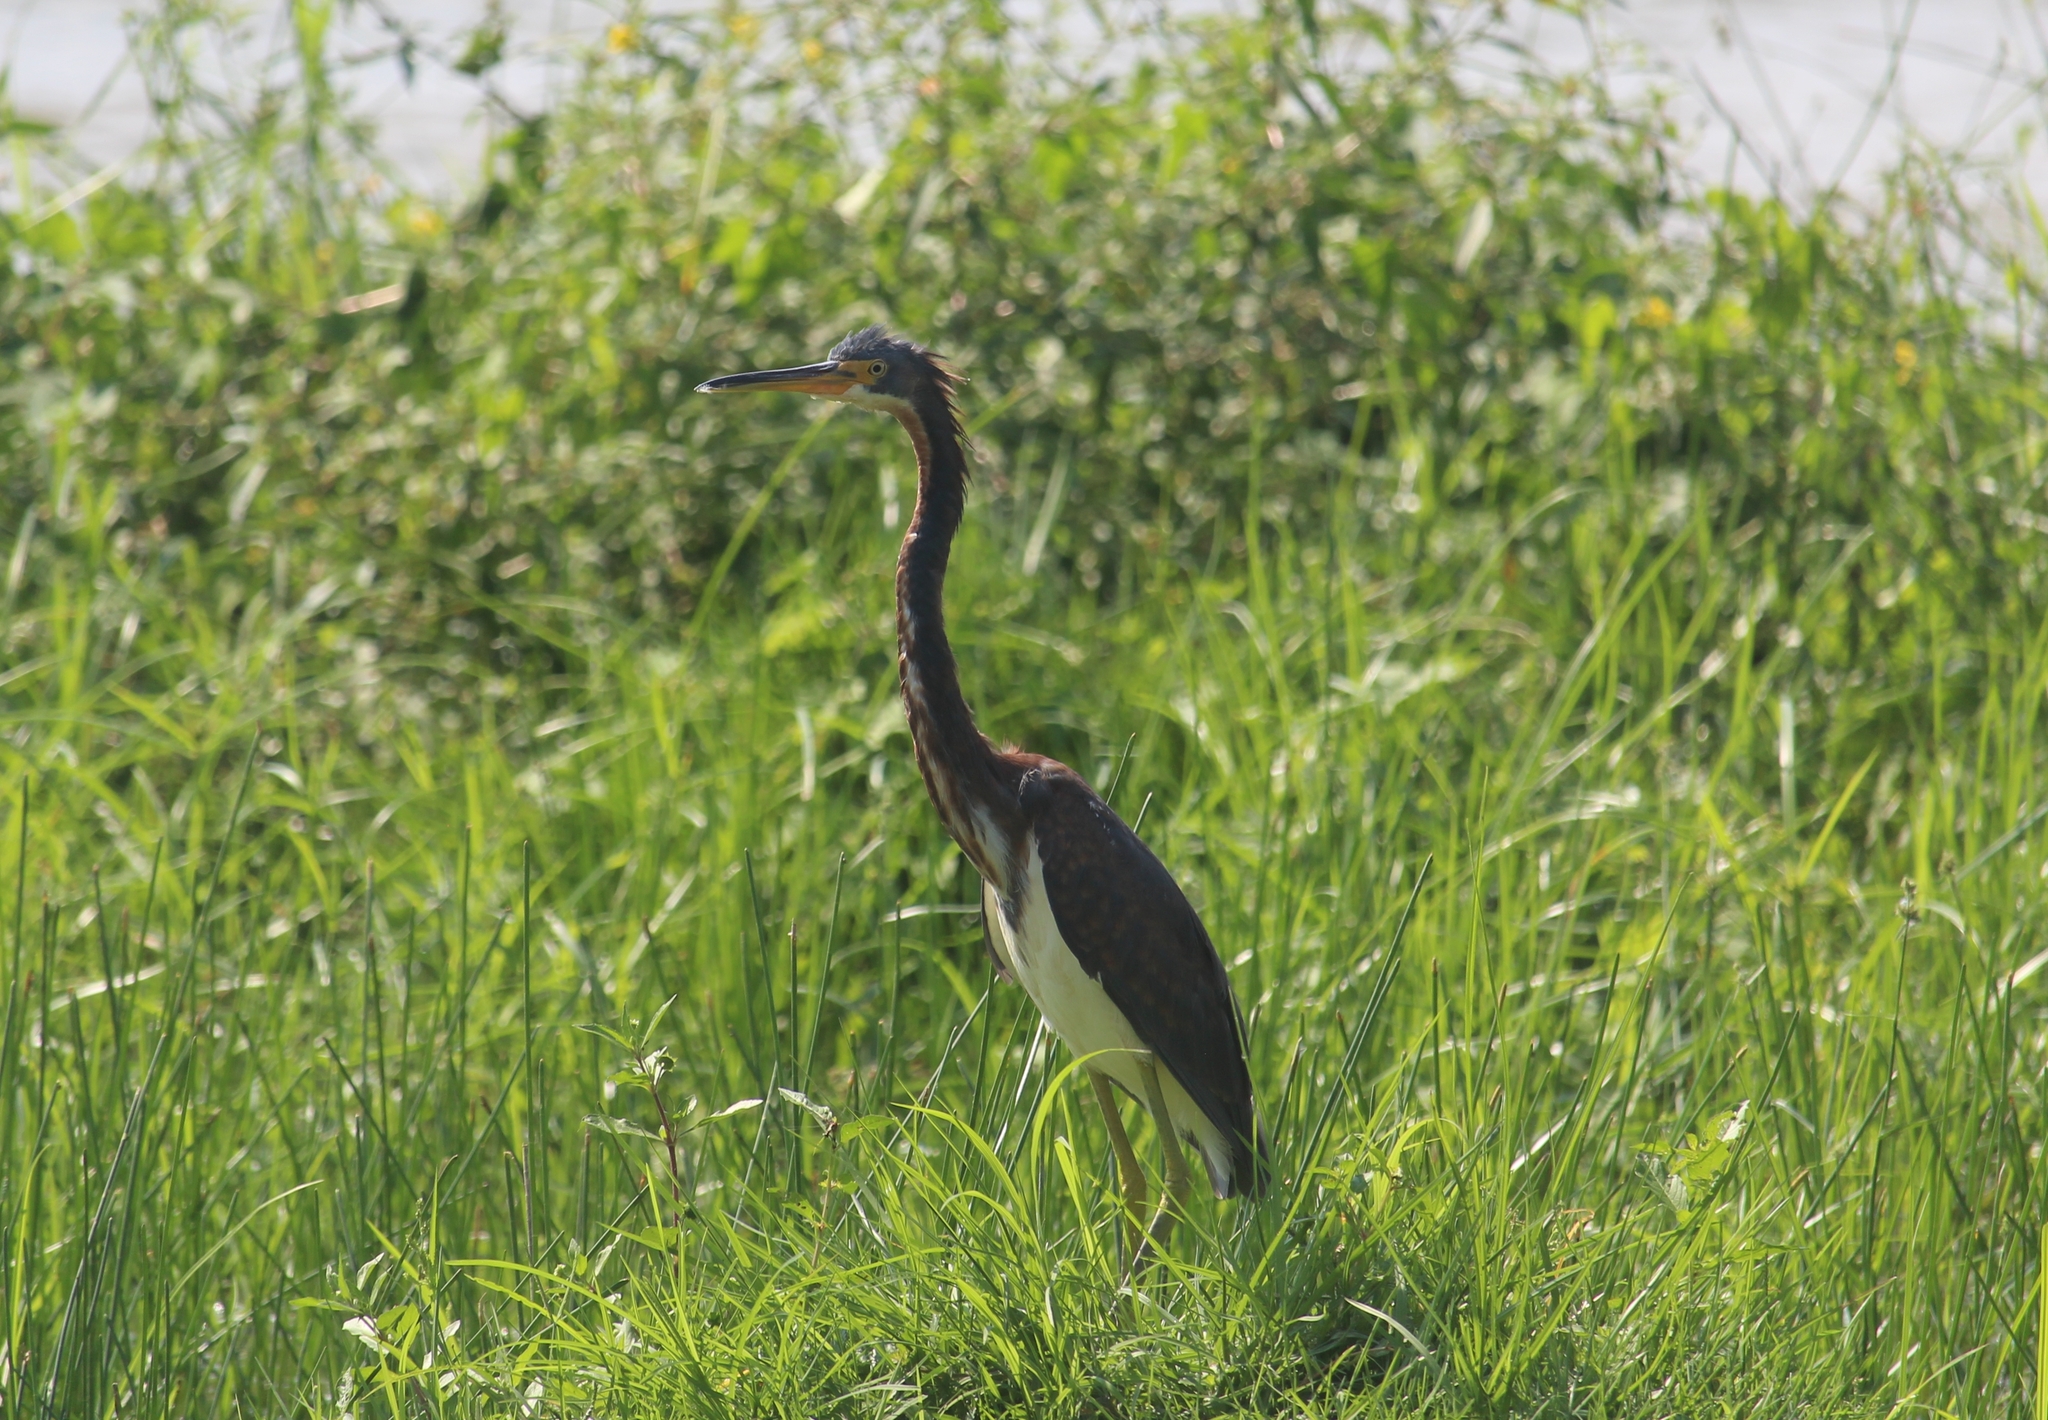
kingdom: Animalia
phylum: Chordata
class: Aves
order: Pelecaniformes
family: Ardeidae
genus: Egretta
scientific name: Egretta tricolor
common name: Tricolored heron
